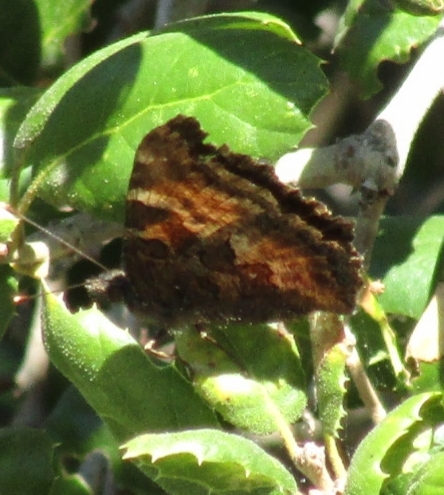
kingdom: Animalia
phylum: Arthropoda
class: Insecta
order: Lepidoptera
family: Nymphalidae
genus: Nymphalis
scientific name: Nymphalis californica
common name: California tortoiseshell
